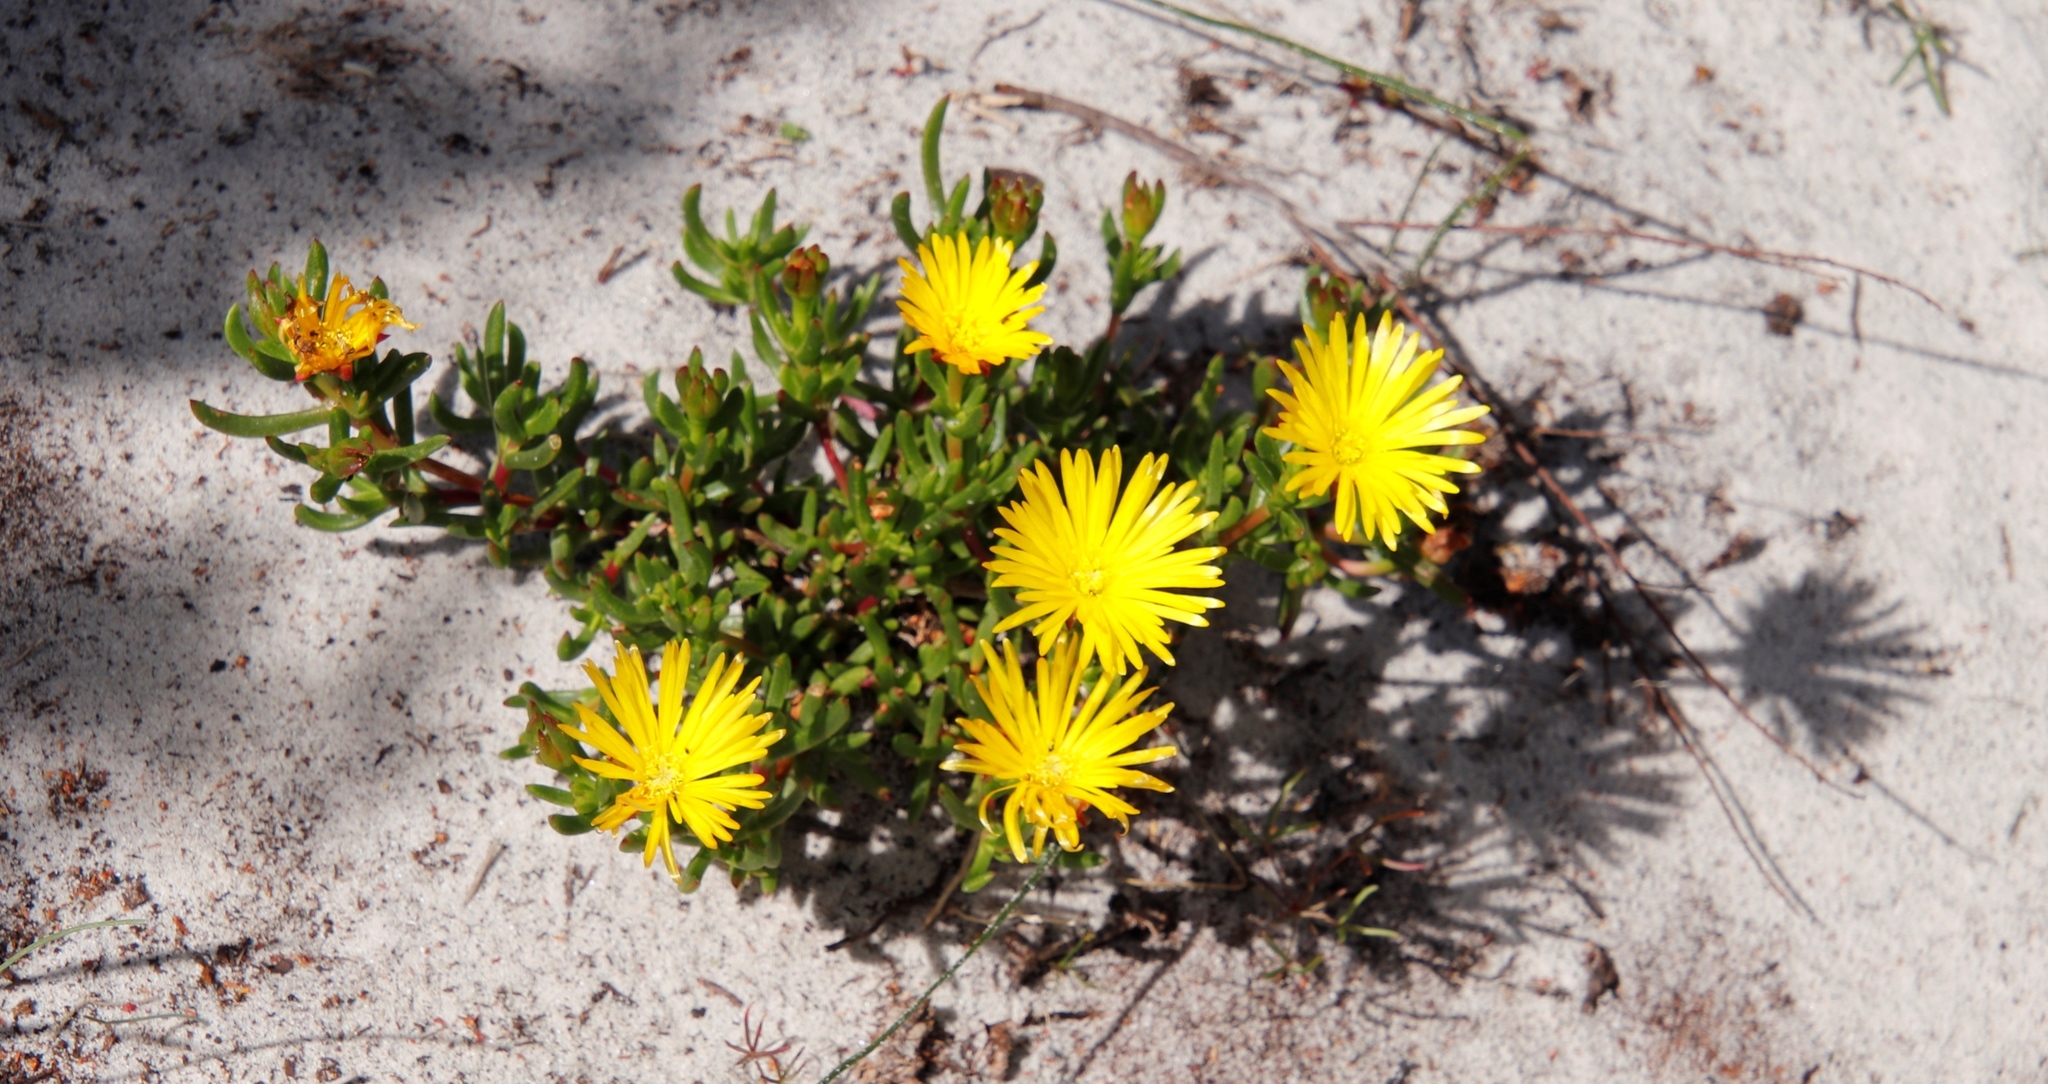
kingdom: Plantae
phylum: Tracheophyta
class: Magnoliopsida
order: Caryophyllales
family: Aizoaceae
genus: Lampranthus
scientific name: Lampranthus promontorii
